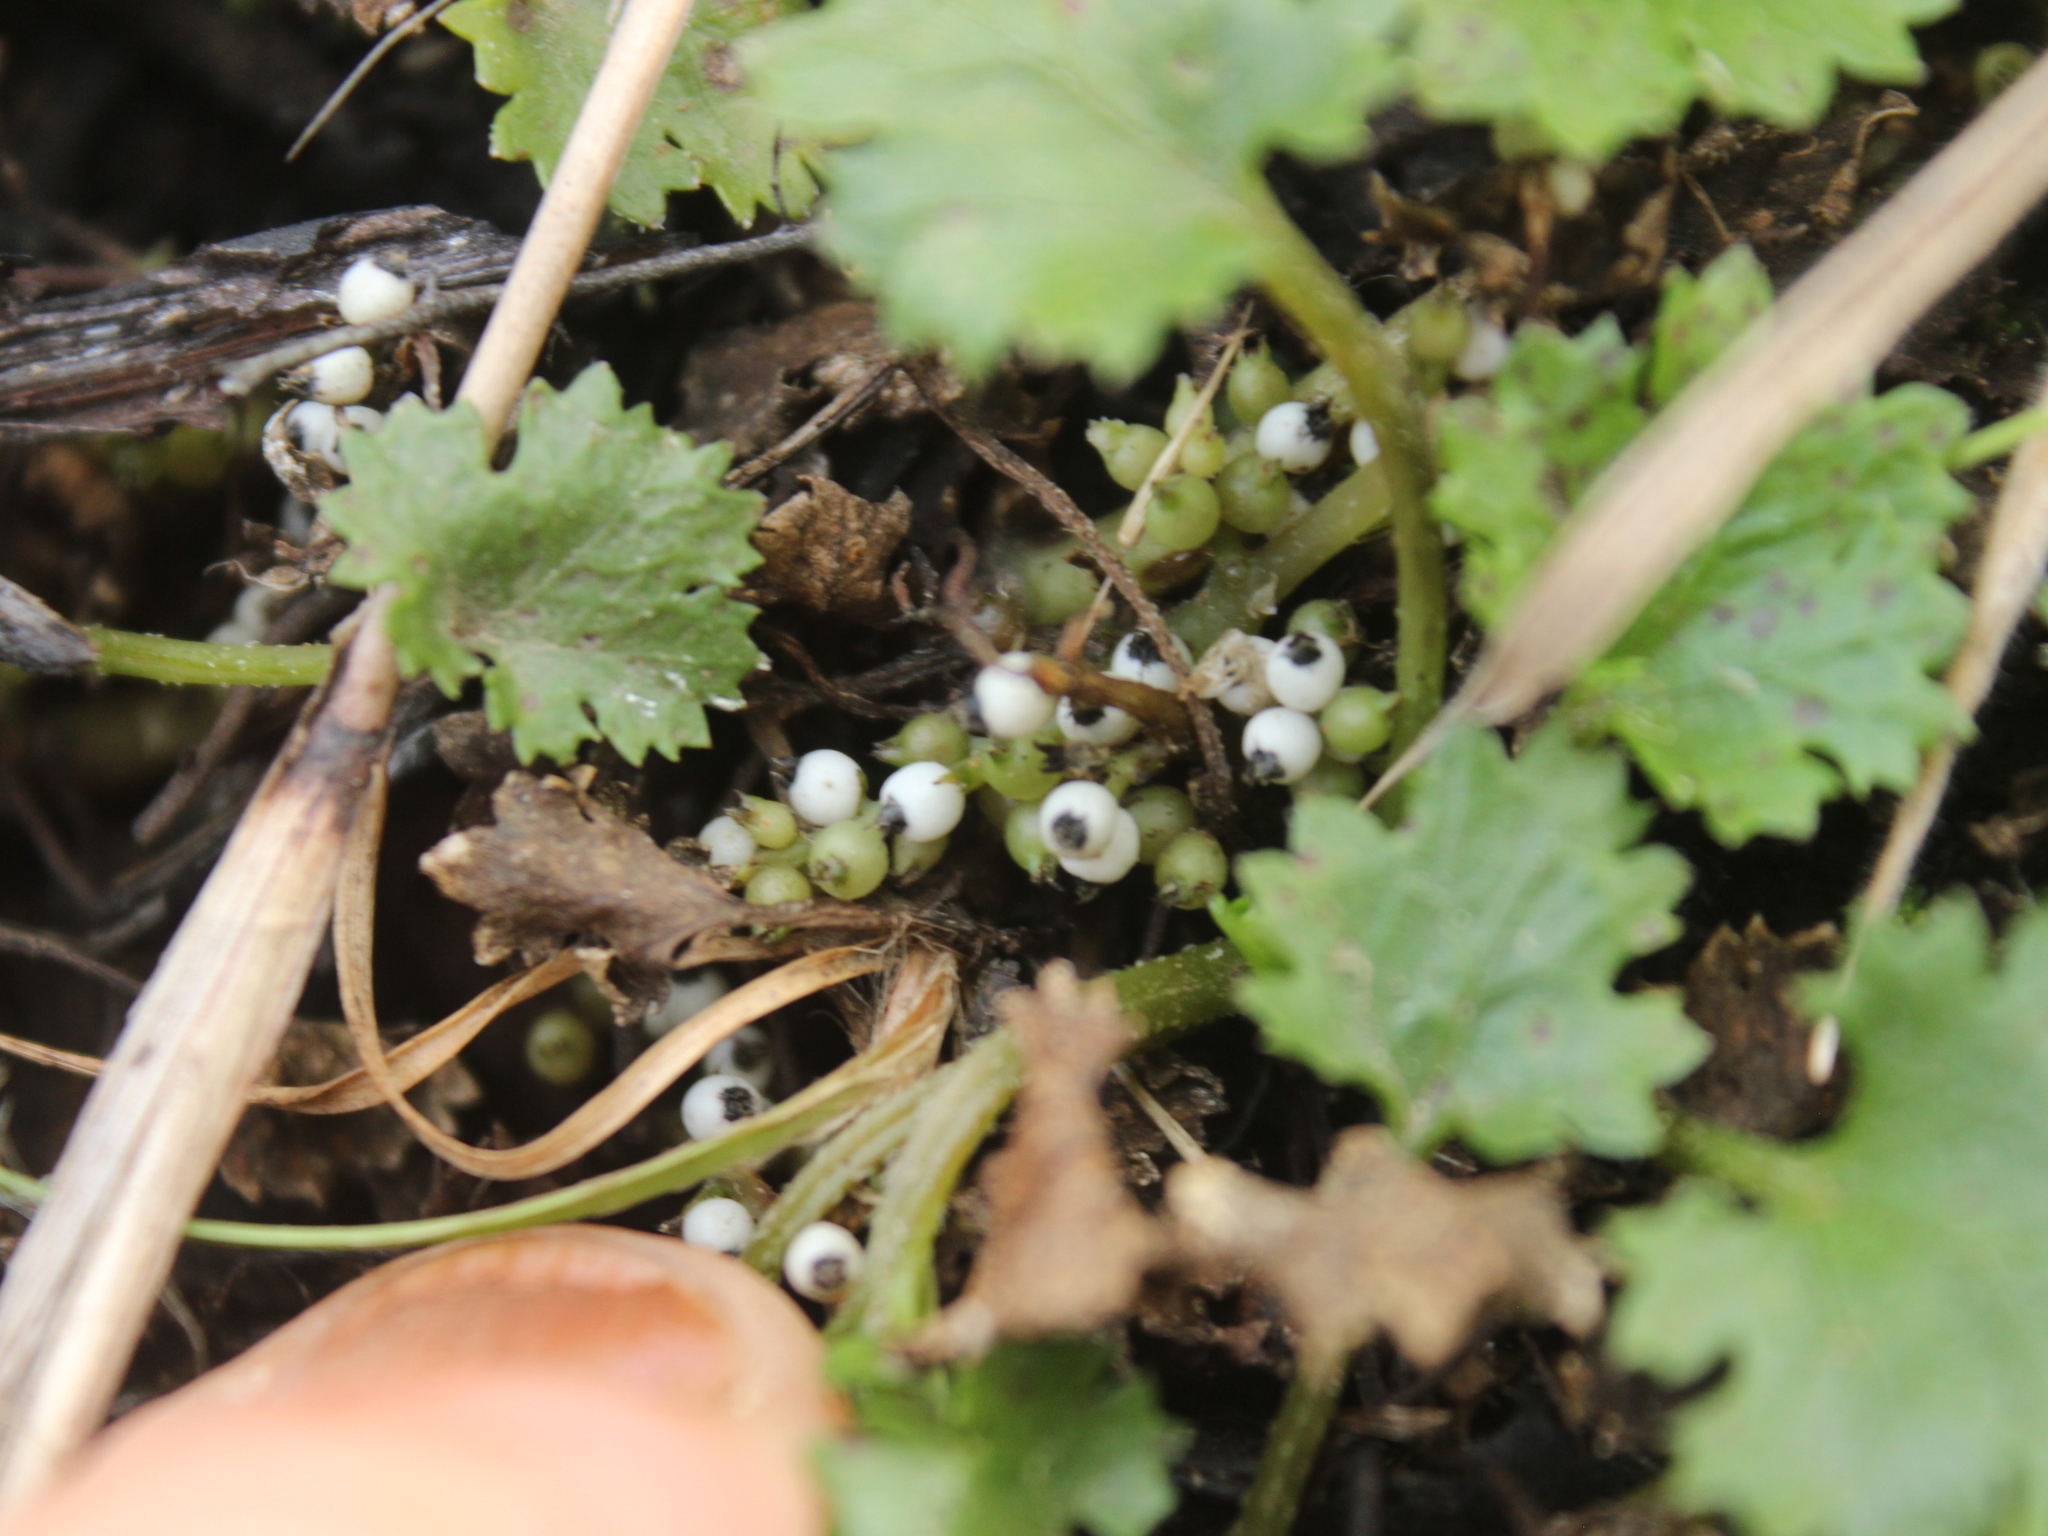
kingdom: Plantae
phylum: Tracheophyta
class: Magnoliopsida
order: Gunnerales
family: Gunneraceae
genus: Gunnera
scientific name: Gunnera monoica
